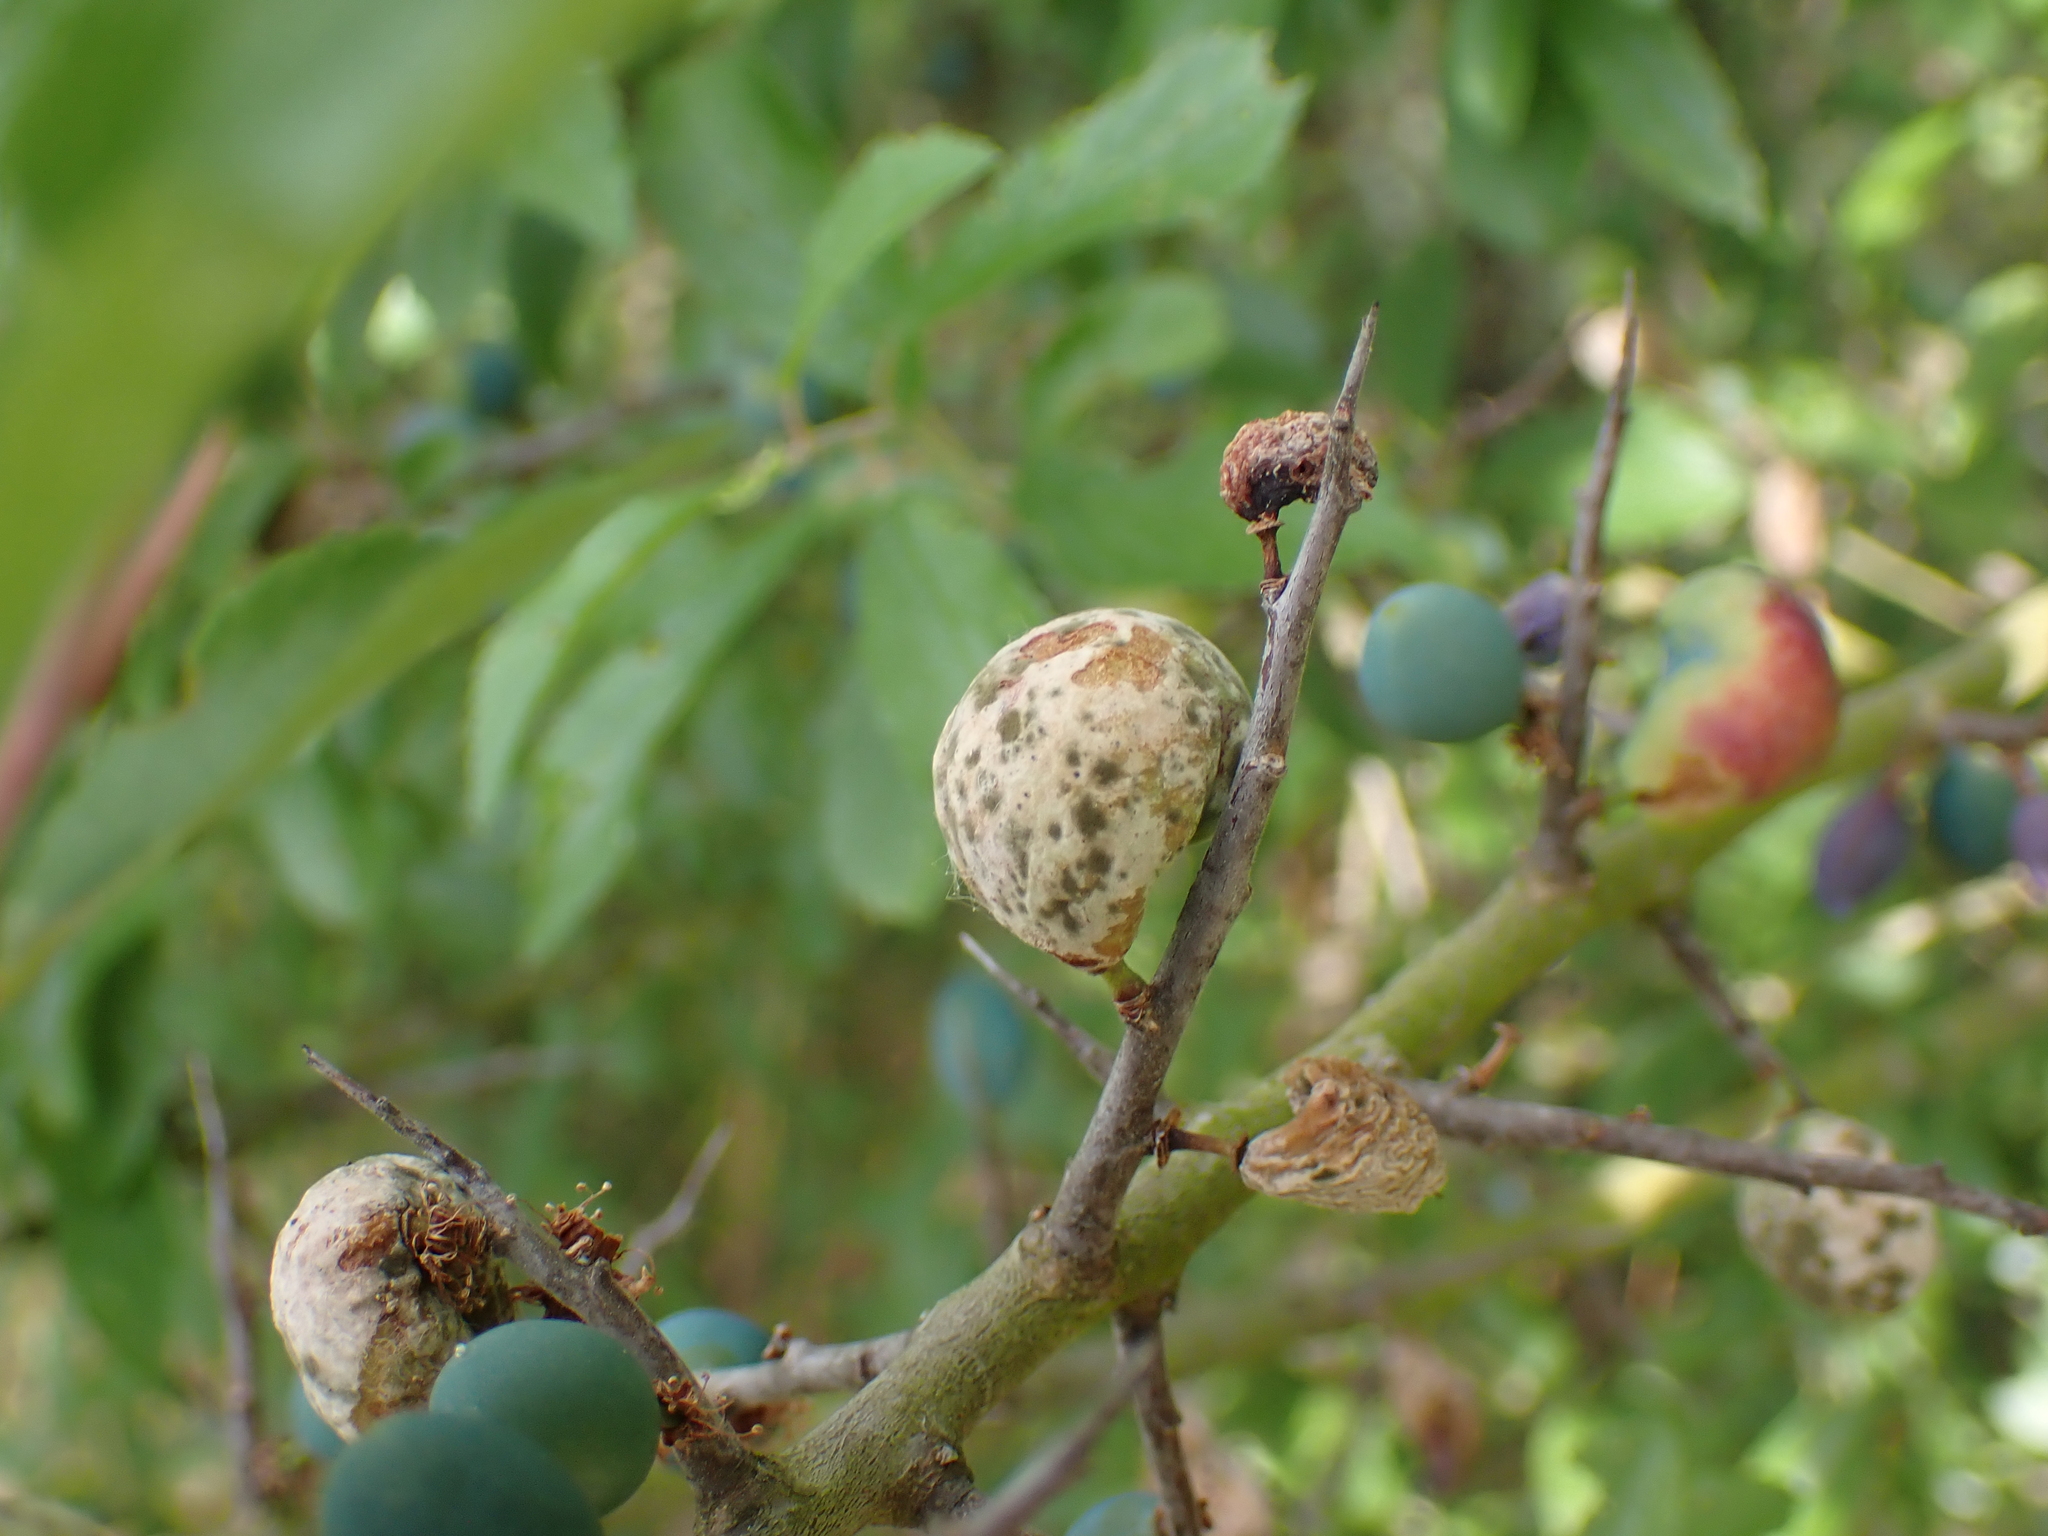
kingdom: Fungi
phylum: Ascomycota
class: Taphrinomycetes
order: Taphrinales
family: Taphrinaceae
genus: Taphrina
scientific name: Taphrina pruni
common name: Pocket plum
